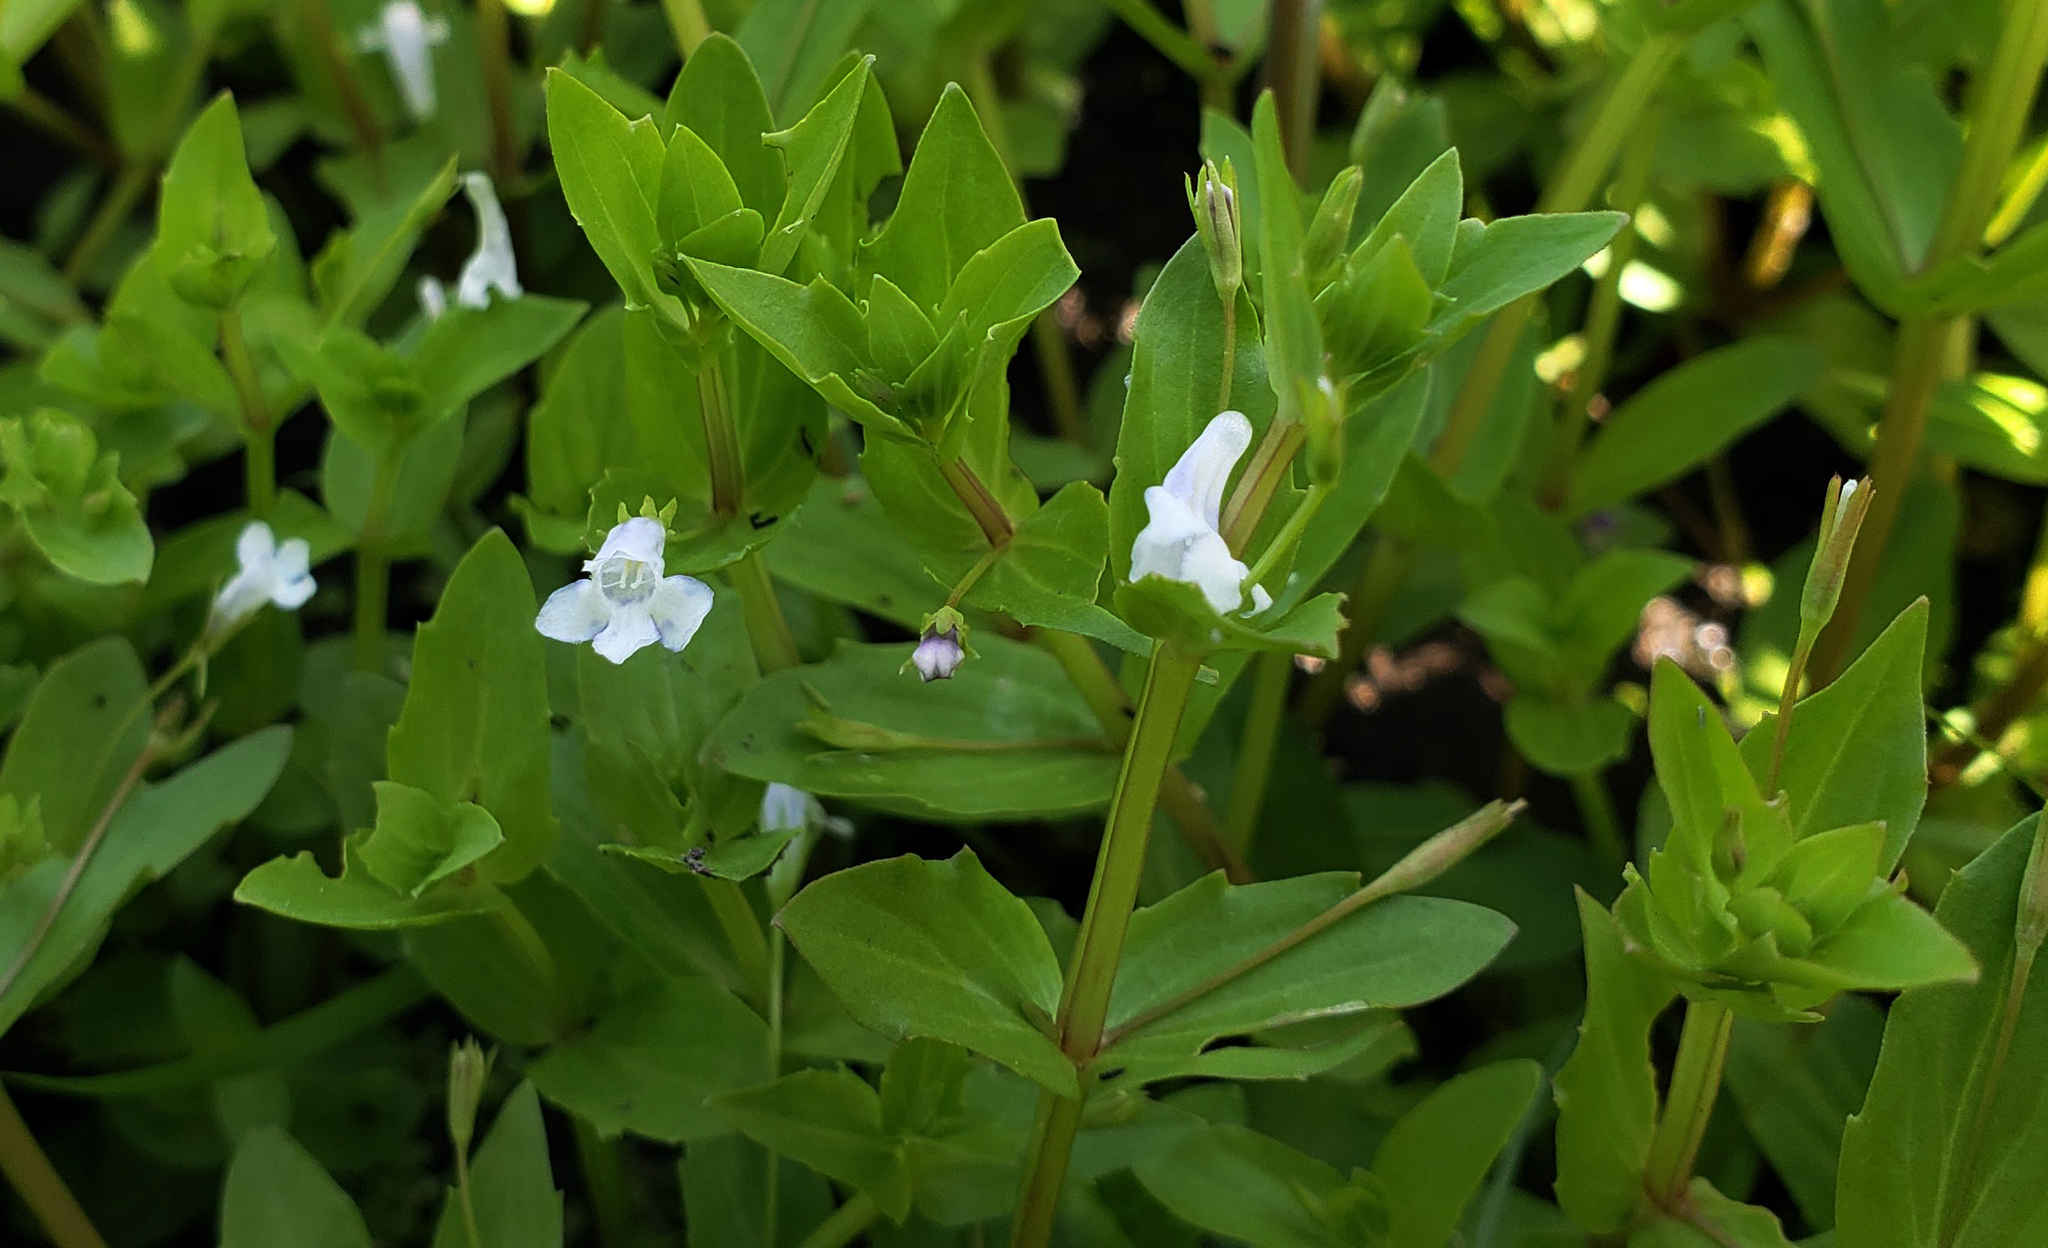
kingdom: Plantae
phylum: Tracheophyta
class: Magnoliopsida
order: Lamiales
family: Linderniaceae
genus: Lindernia
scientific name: Lindernia dubia
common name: Annual false pimpernel
